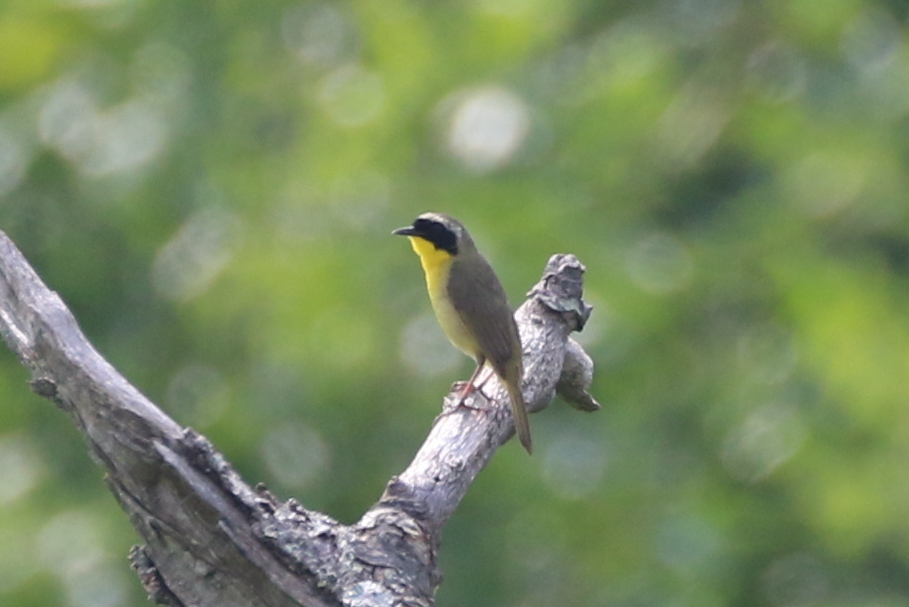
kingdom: Animalia
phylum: Chordata
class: Aves
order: Passeriformes
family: Parulidae
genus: Geothlypis
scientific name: Geothlypis trichas
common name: Common yellowthroat
